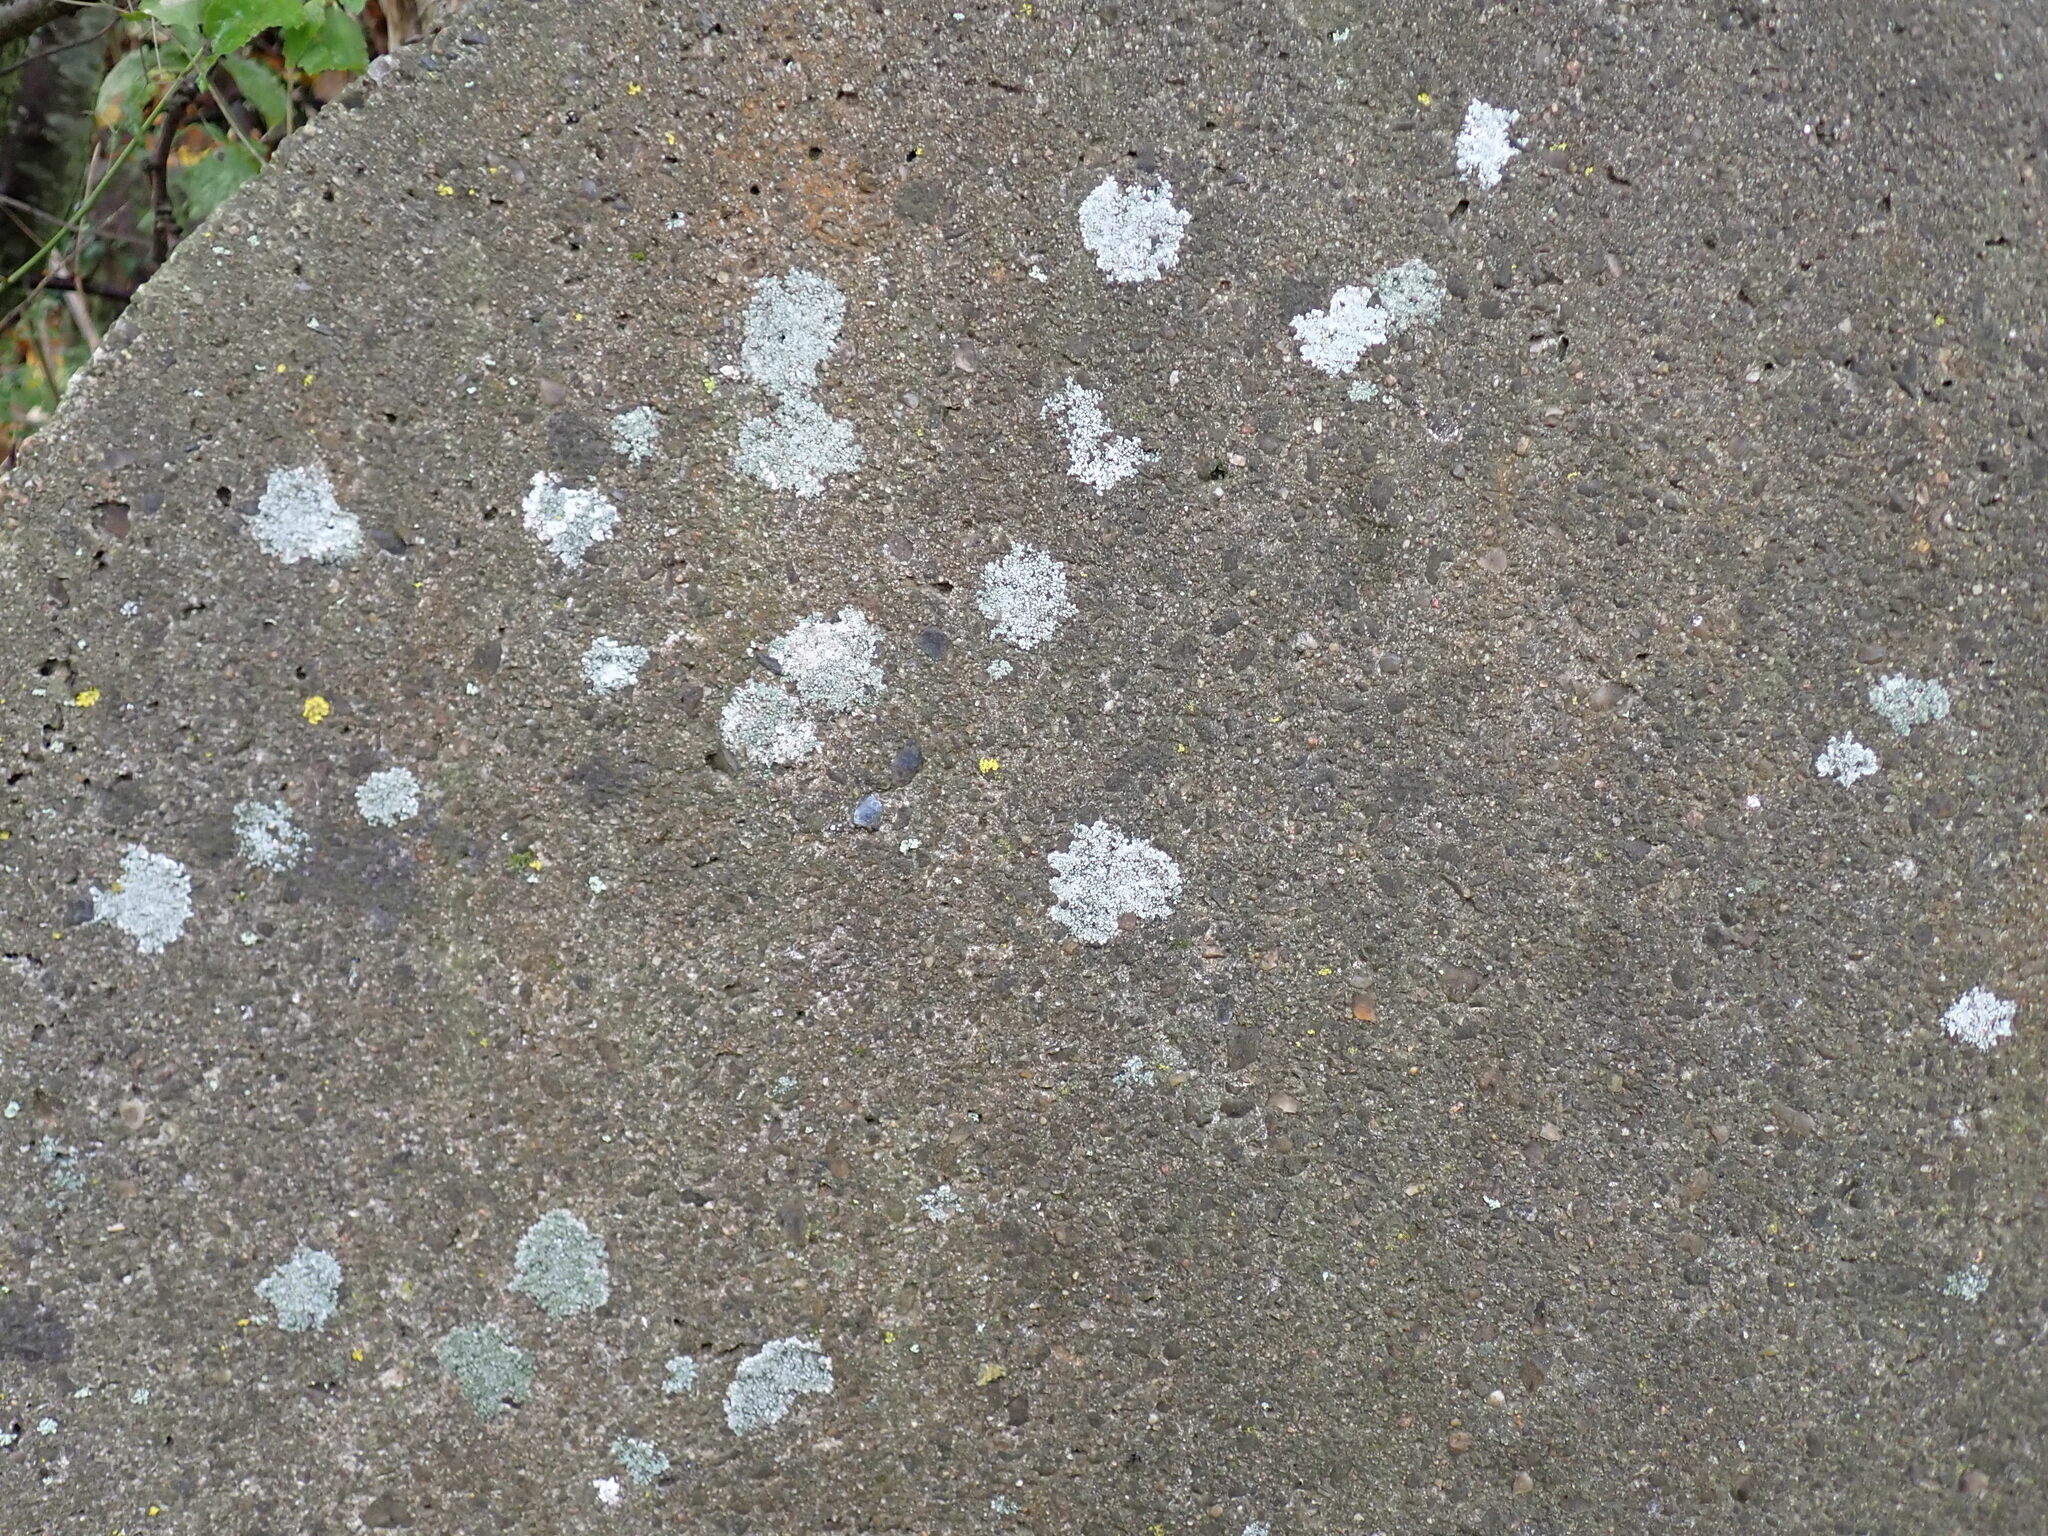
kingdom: Fungi
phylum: Ascomycota
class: Lecanoromycetes
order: Pertusariales
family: Megasporaceae
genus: Circinaria
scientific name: Circinaria contorta
